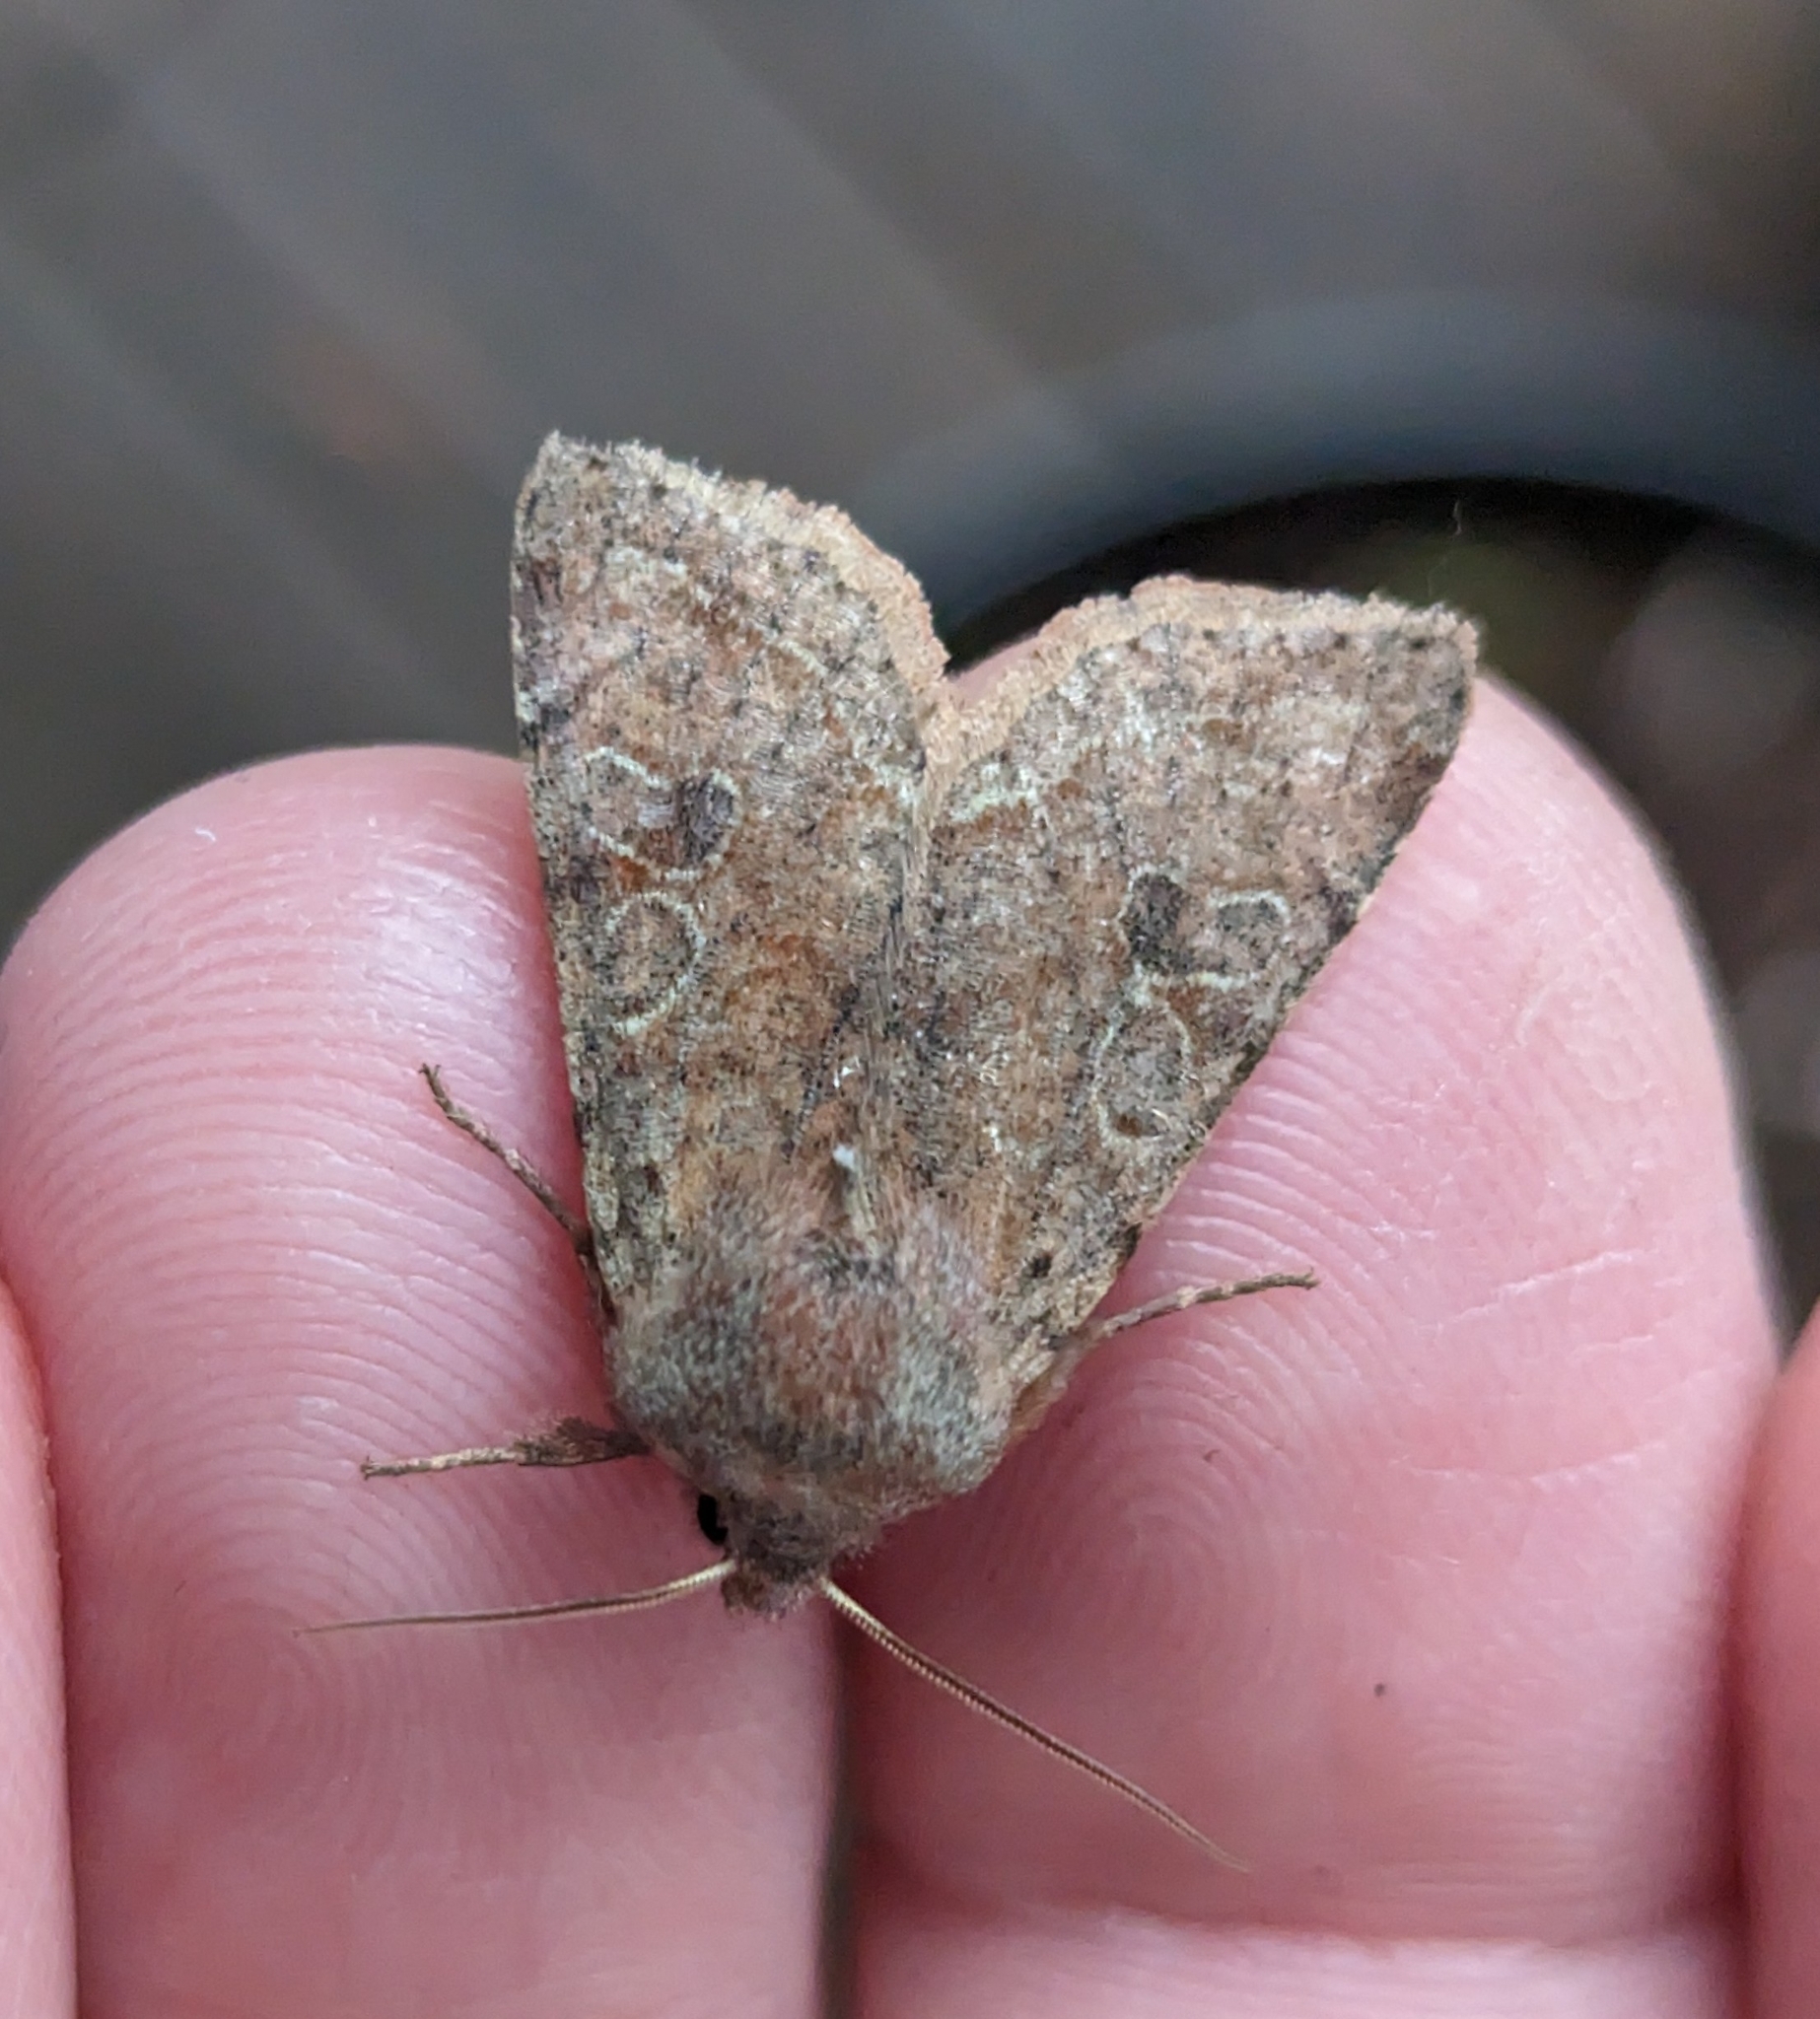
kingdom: Animalia
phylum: Arthropoda
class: Insecta
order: Lepidoptera
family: Noctuidae
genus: Orthosia
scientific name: Orthosia hibisci
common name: Green fruitworm
